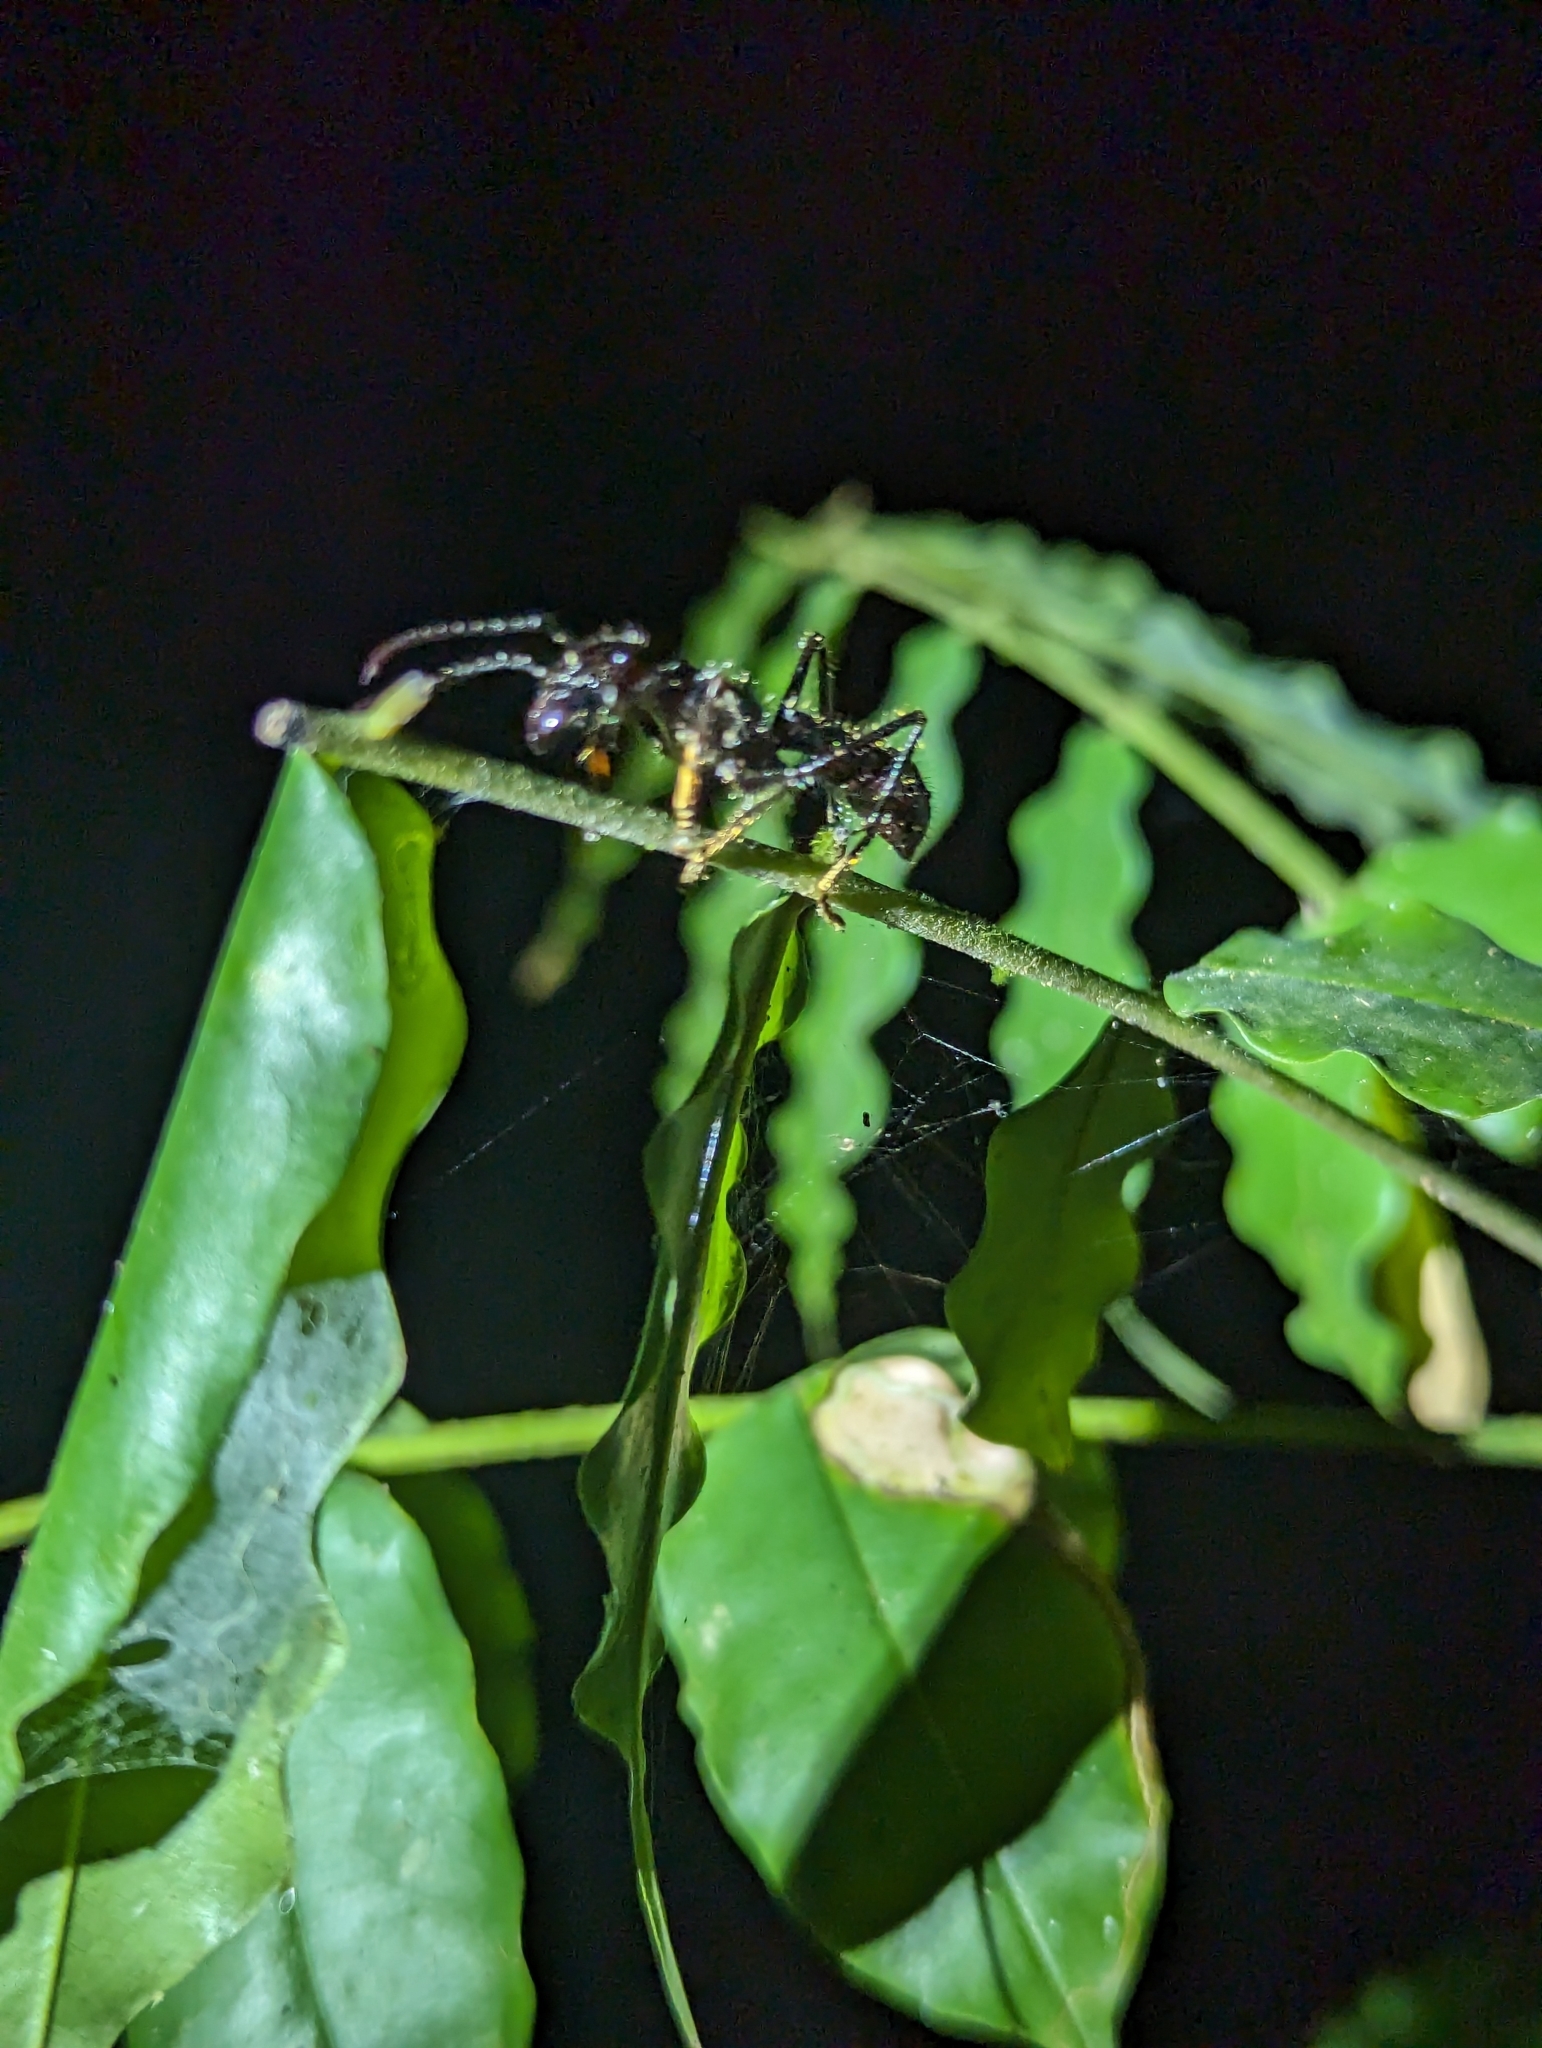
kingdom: Animalia
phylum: Arthropoda
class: Insecta
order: Hymenoptera
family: Formicidae
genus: Paraponera
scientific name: Paraponera clavata
